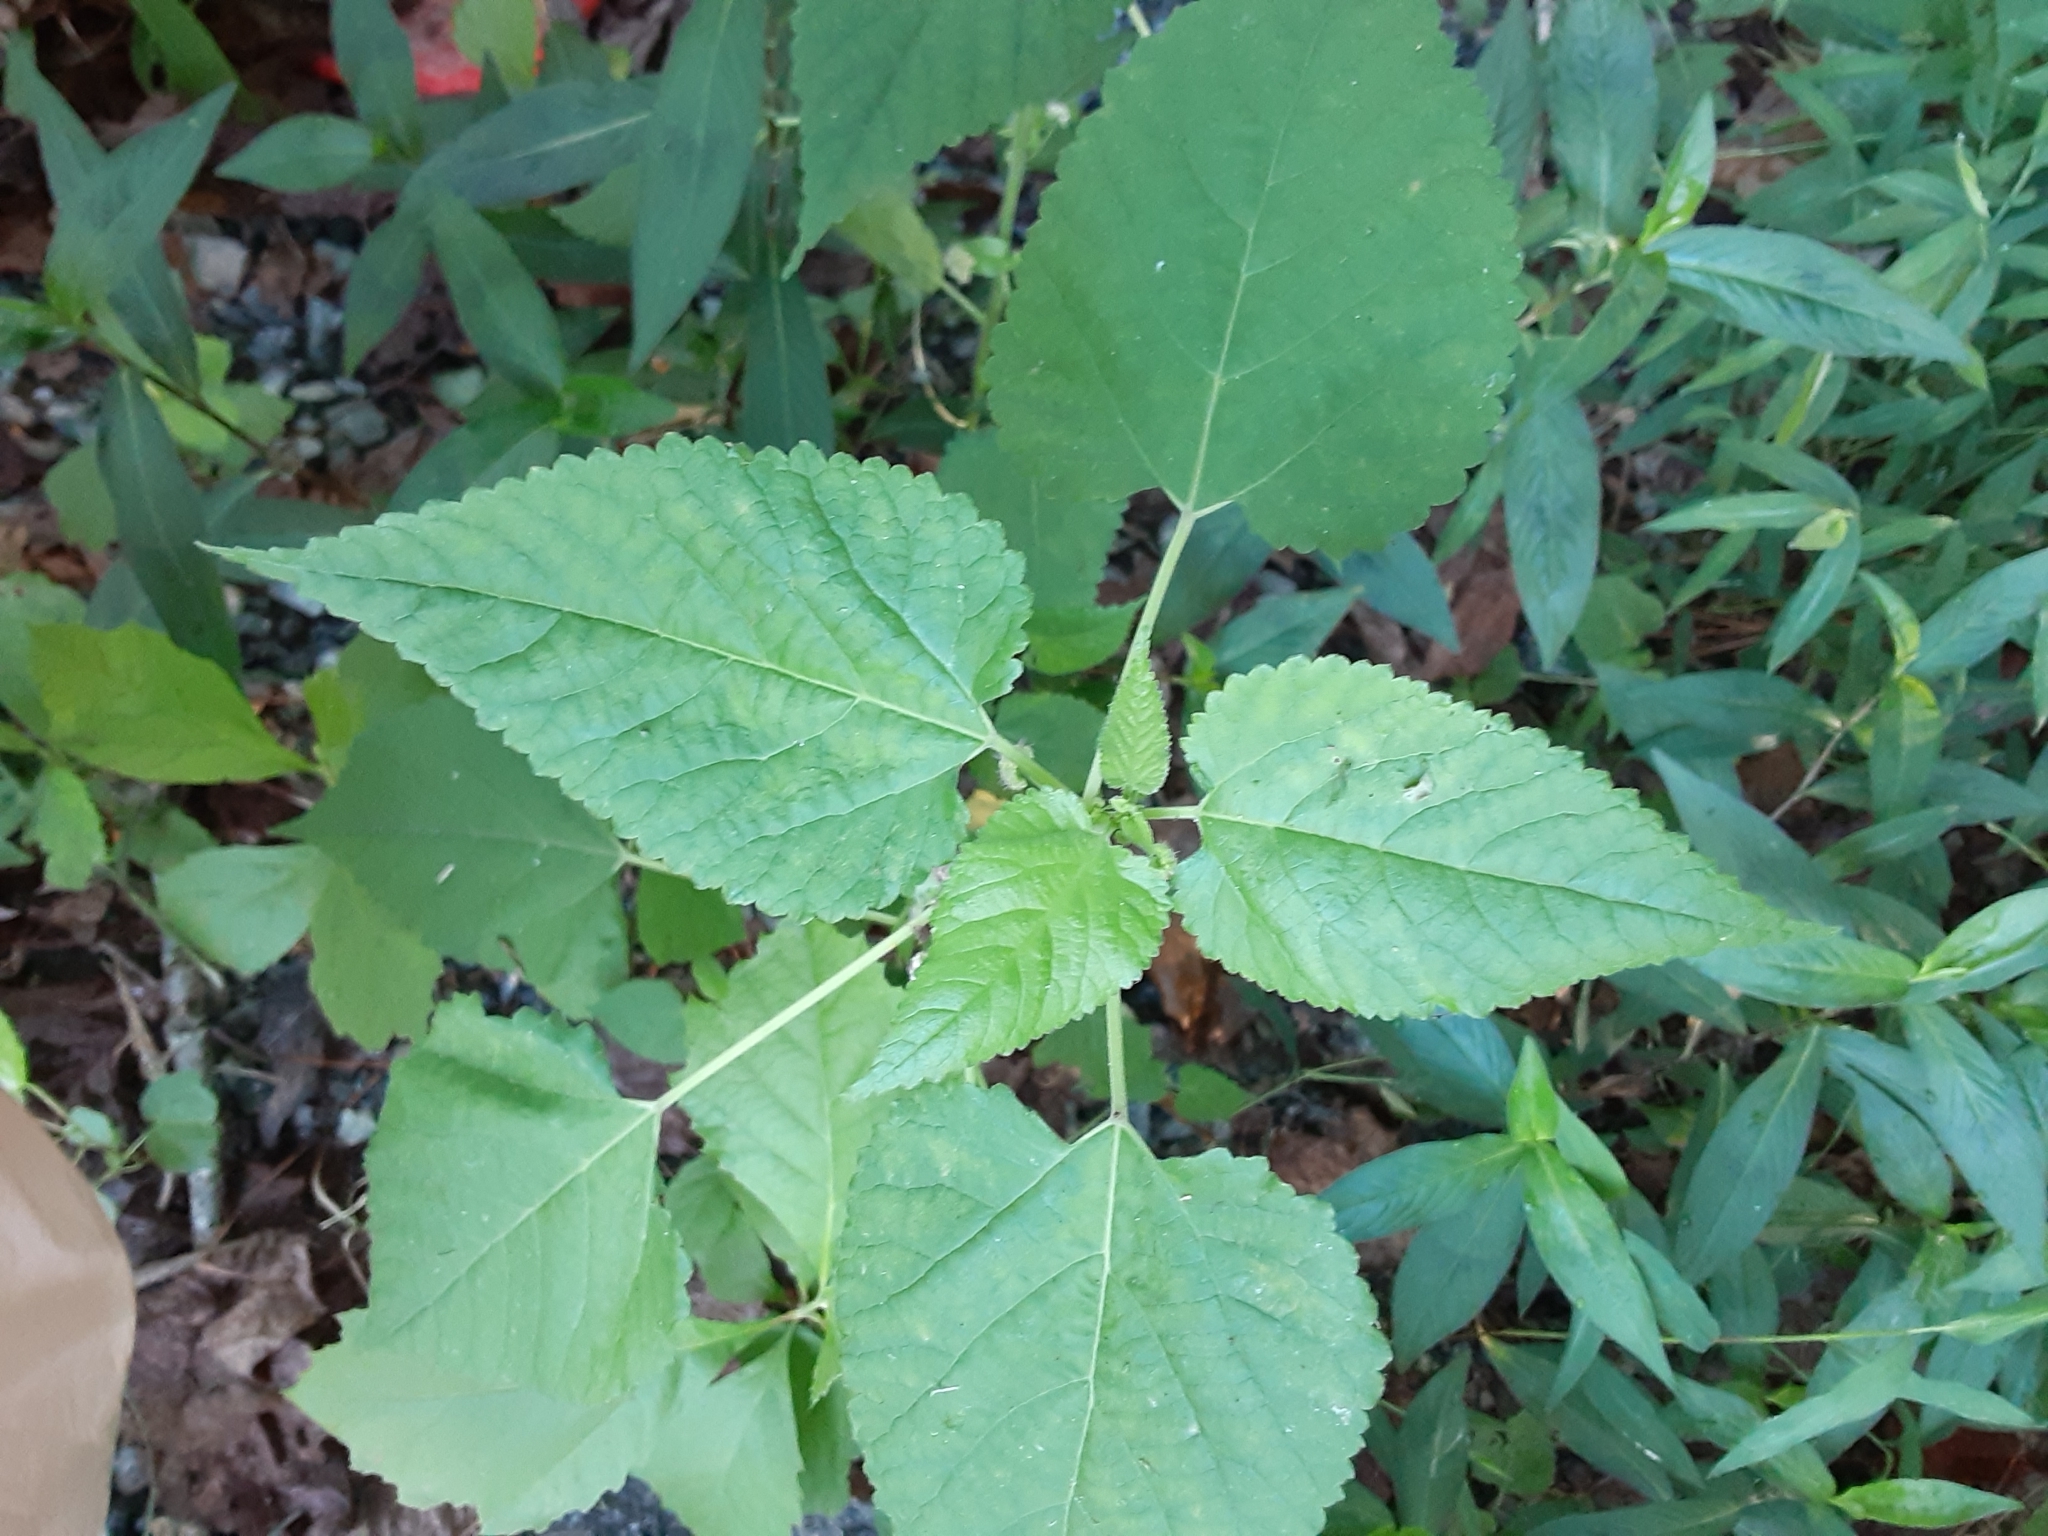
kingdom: Plantae
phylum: Tracheophyta
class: Magnoliopsida
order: Rosales
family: Moraceae
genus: Fatoua
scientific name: Fatoua villosa
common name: Hairy crabweed
